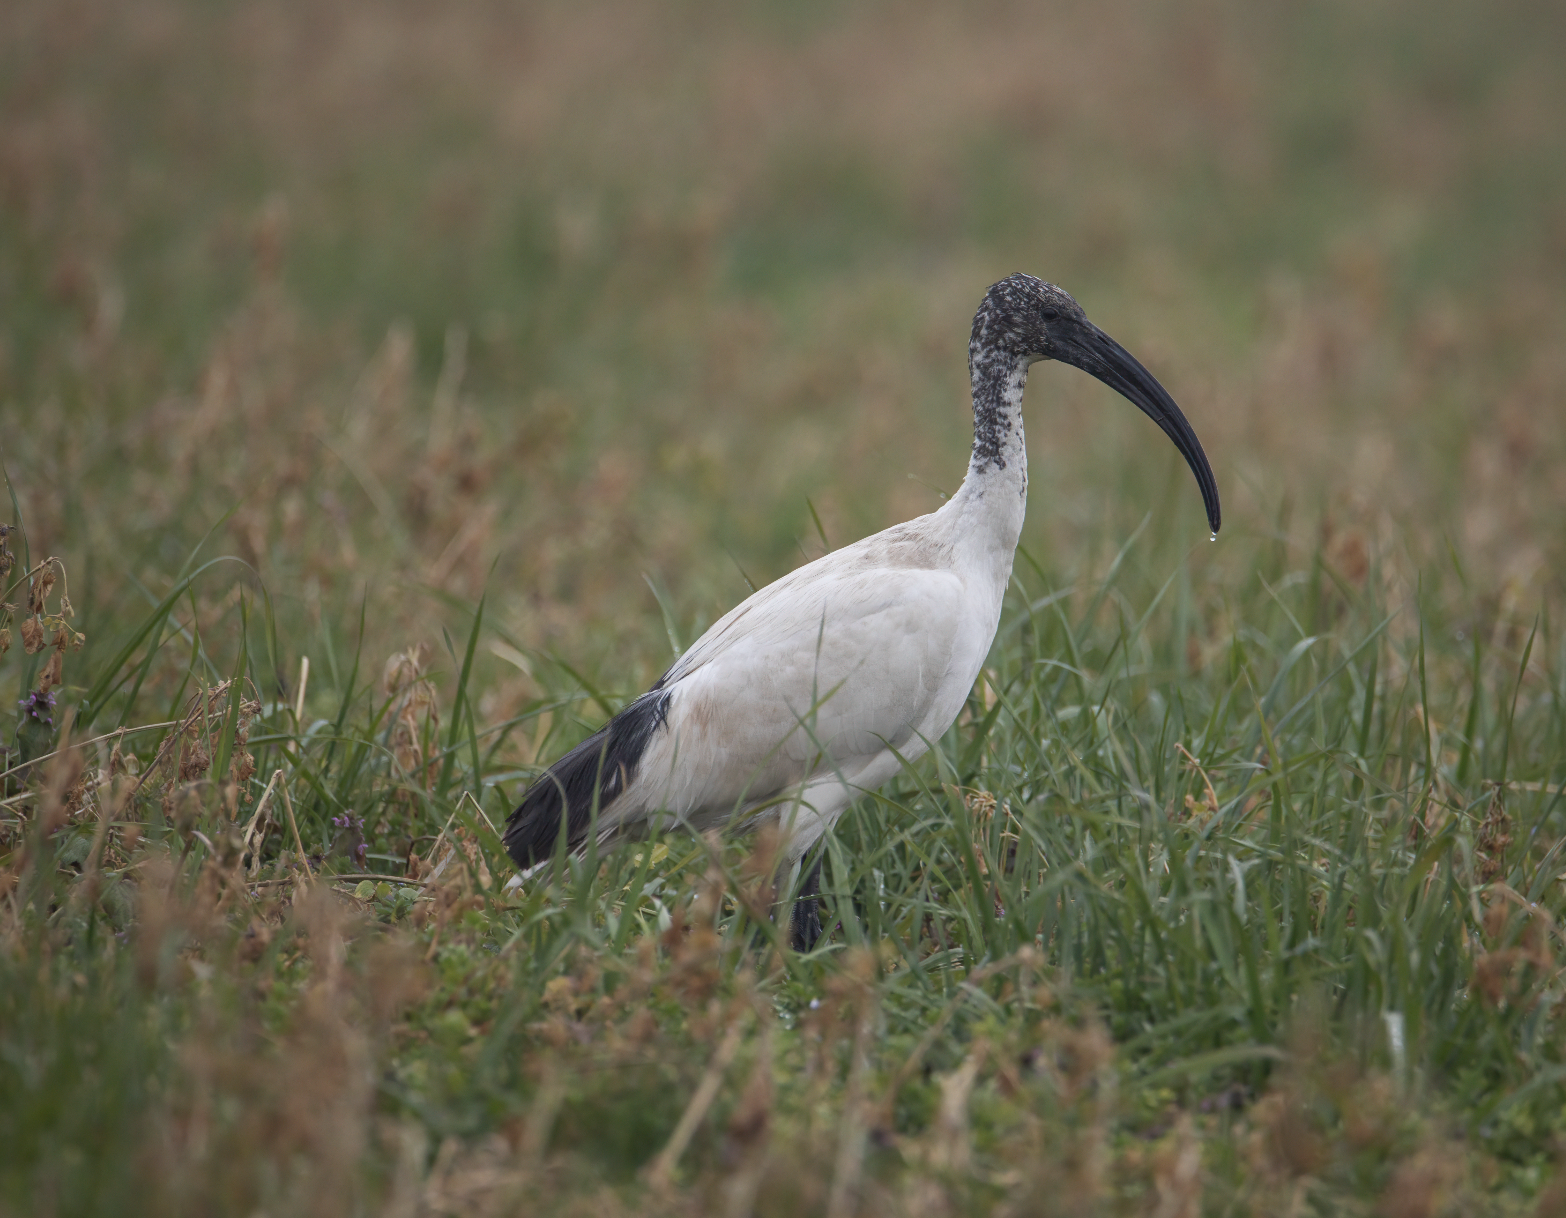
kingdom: Animalia
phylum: Chordata
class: Aves
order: Pelecaniformes
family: Threskiornithidae
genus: Threskiornis
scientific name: Threskiornis aethiopicus
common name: Sacred ibis
